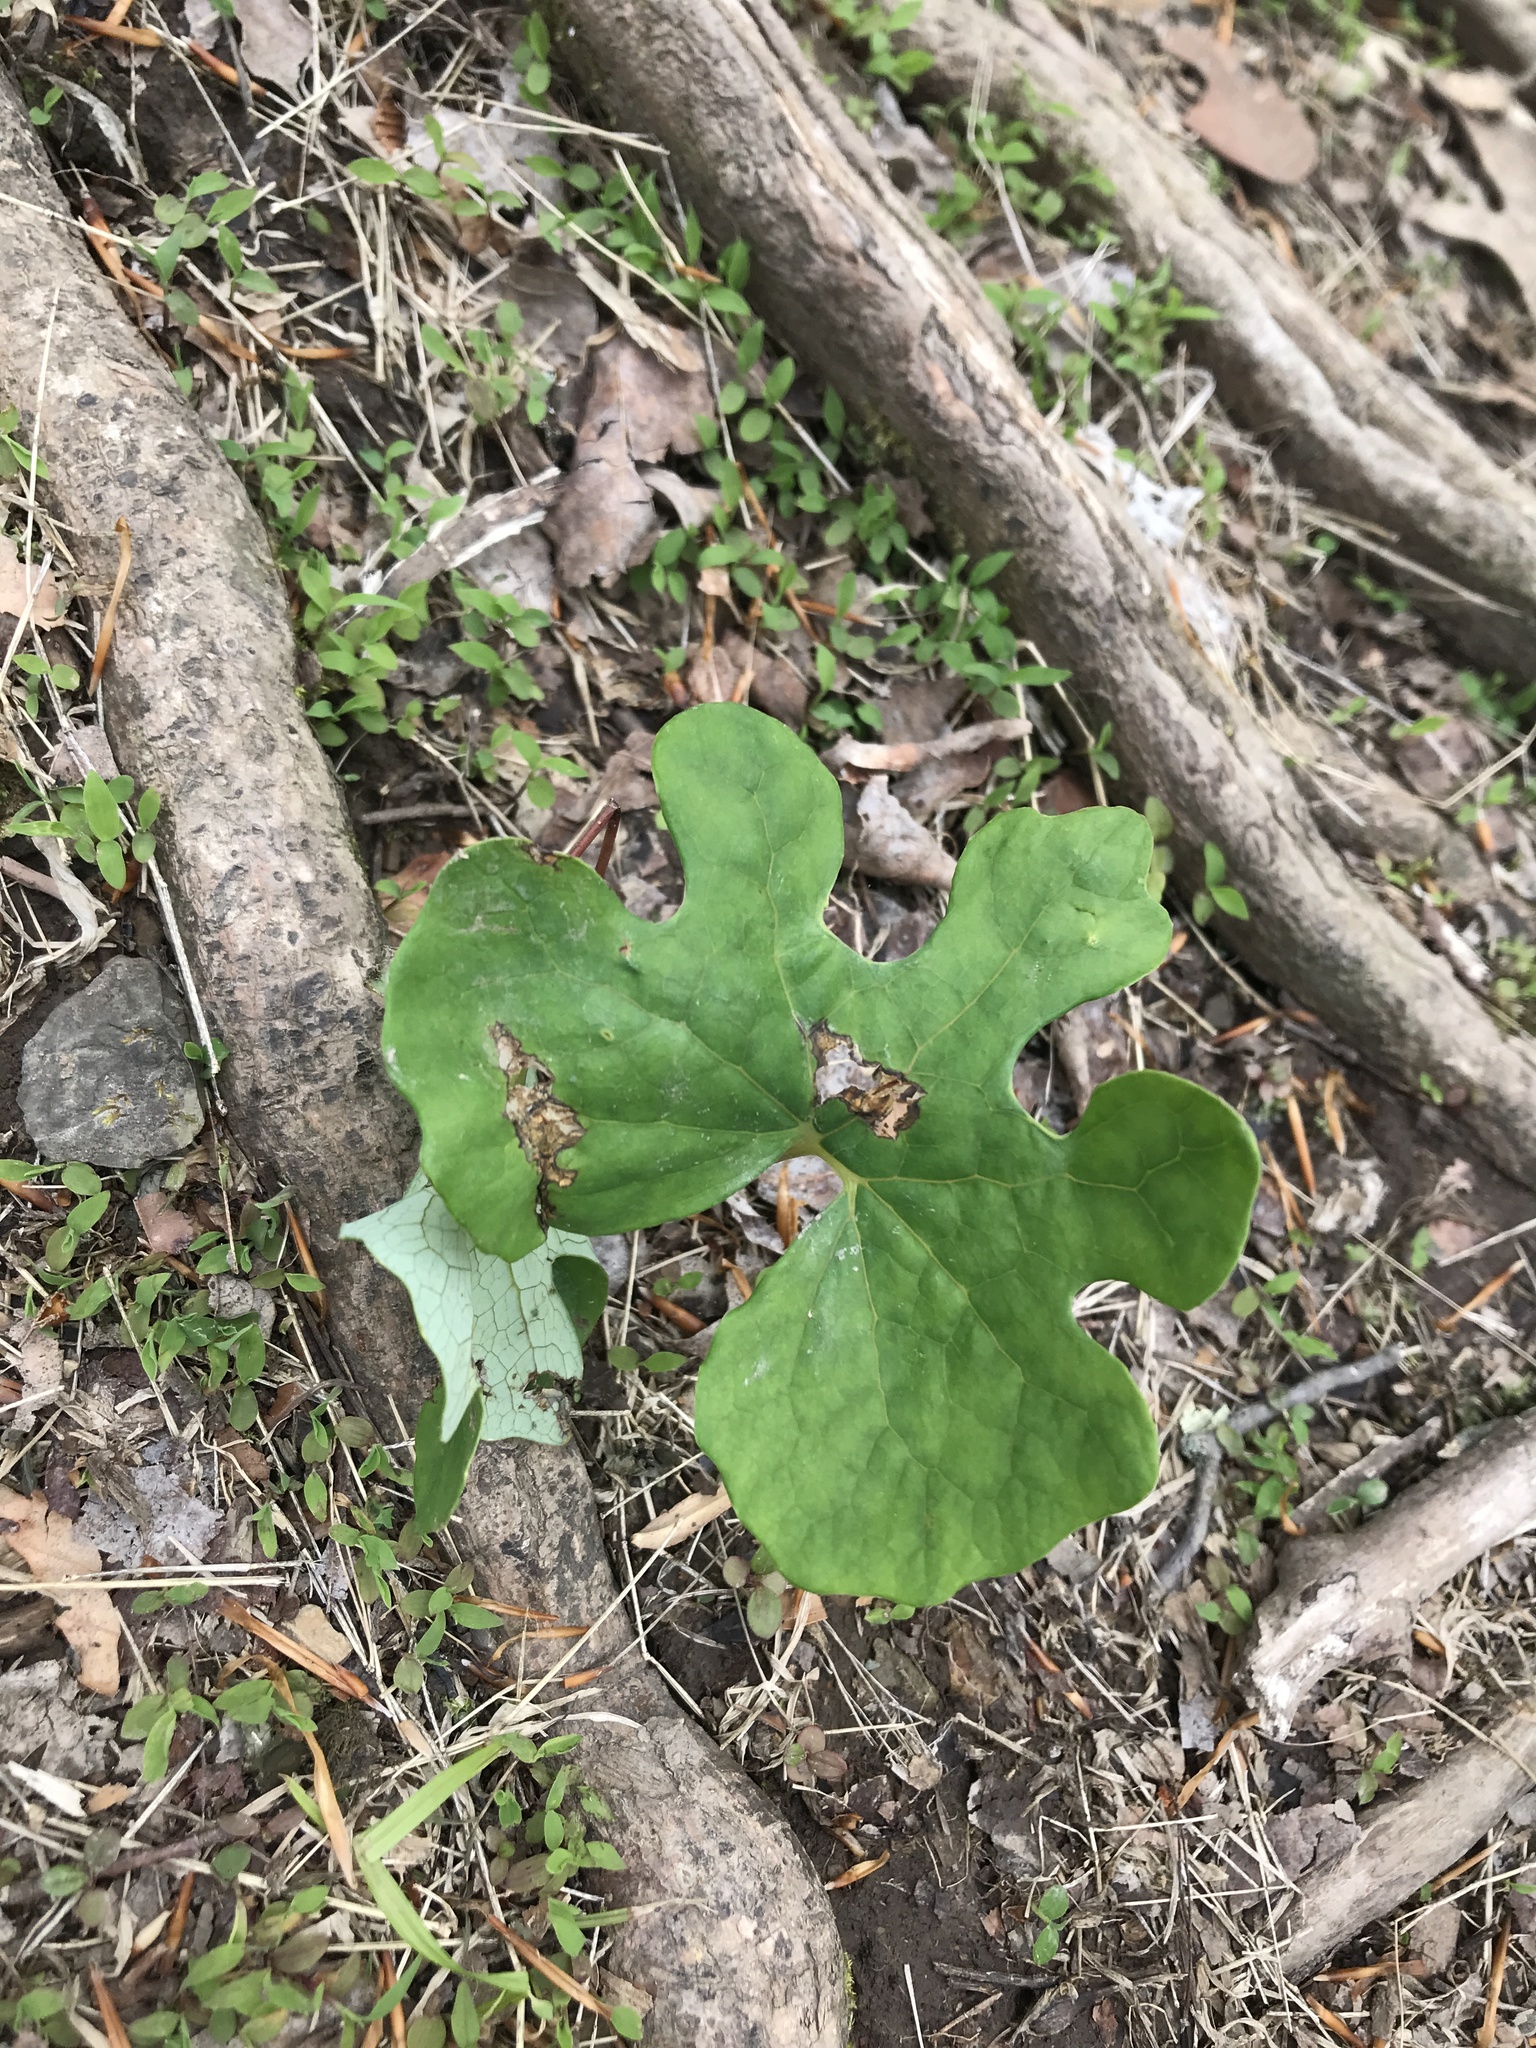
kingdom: Plantae
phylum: Tracheophyta
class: Magnoliopsida
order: Ranunculales
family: Papaveraceae
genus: Sanguinaria
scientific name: Sanguinaria canadensis
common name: Bloodroot
